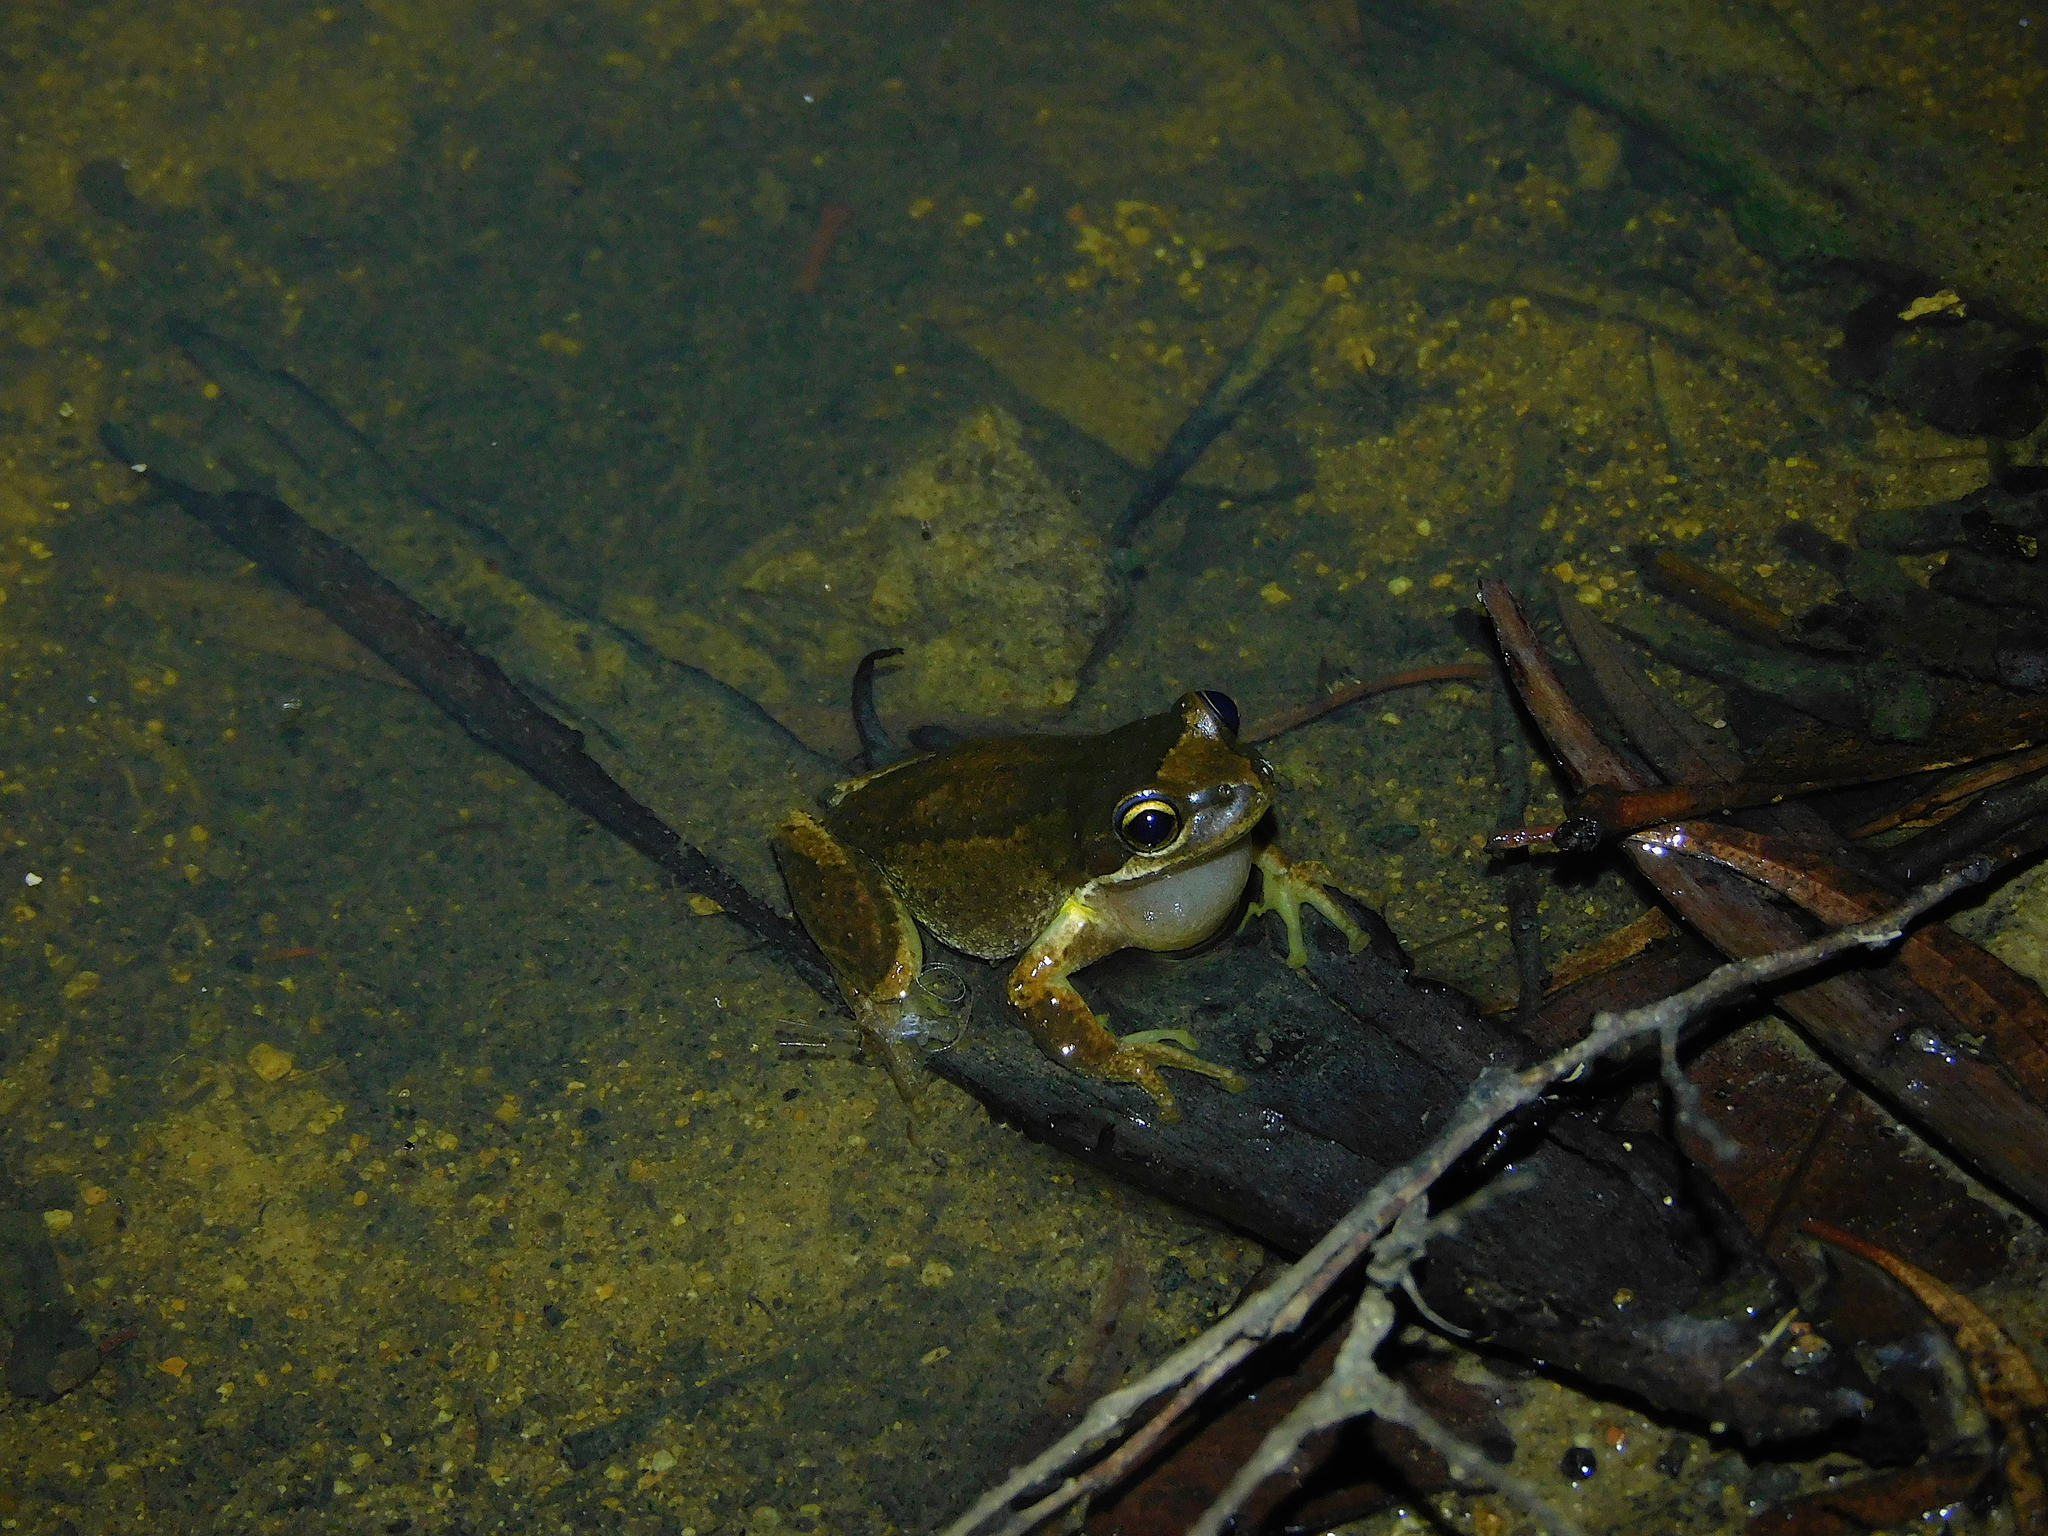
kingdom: Animalia
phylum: Chordata
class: Amphibia
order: Anura
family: Pelodryadidae
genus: Litoria
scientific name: Litoria ewingii
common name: Southern brown tree frog
